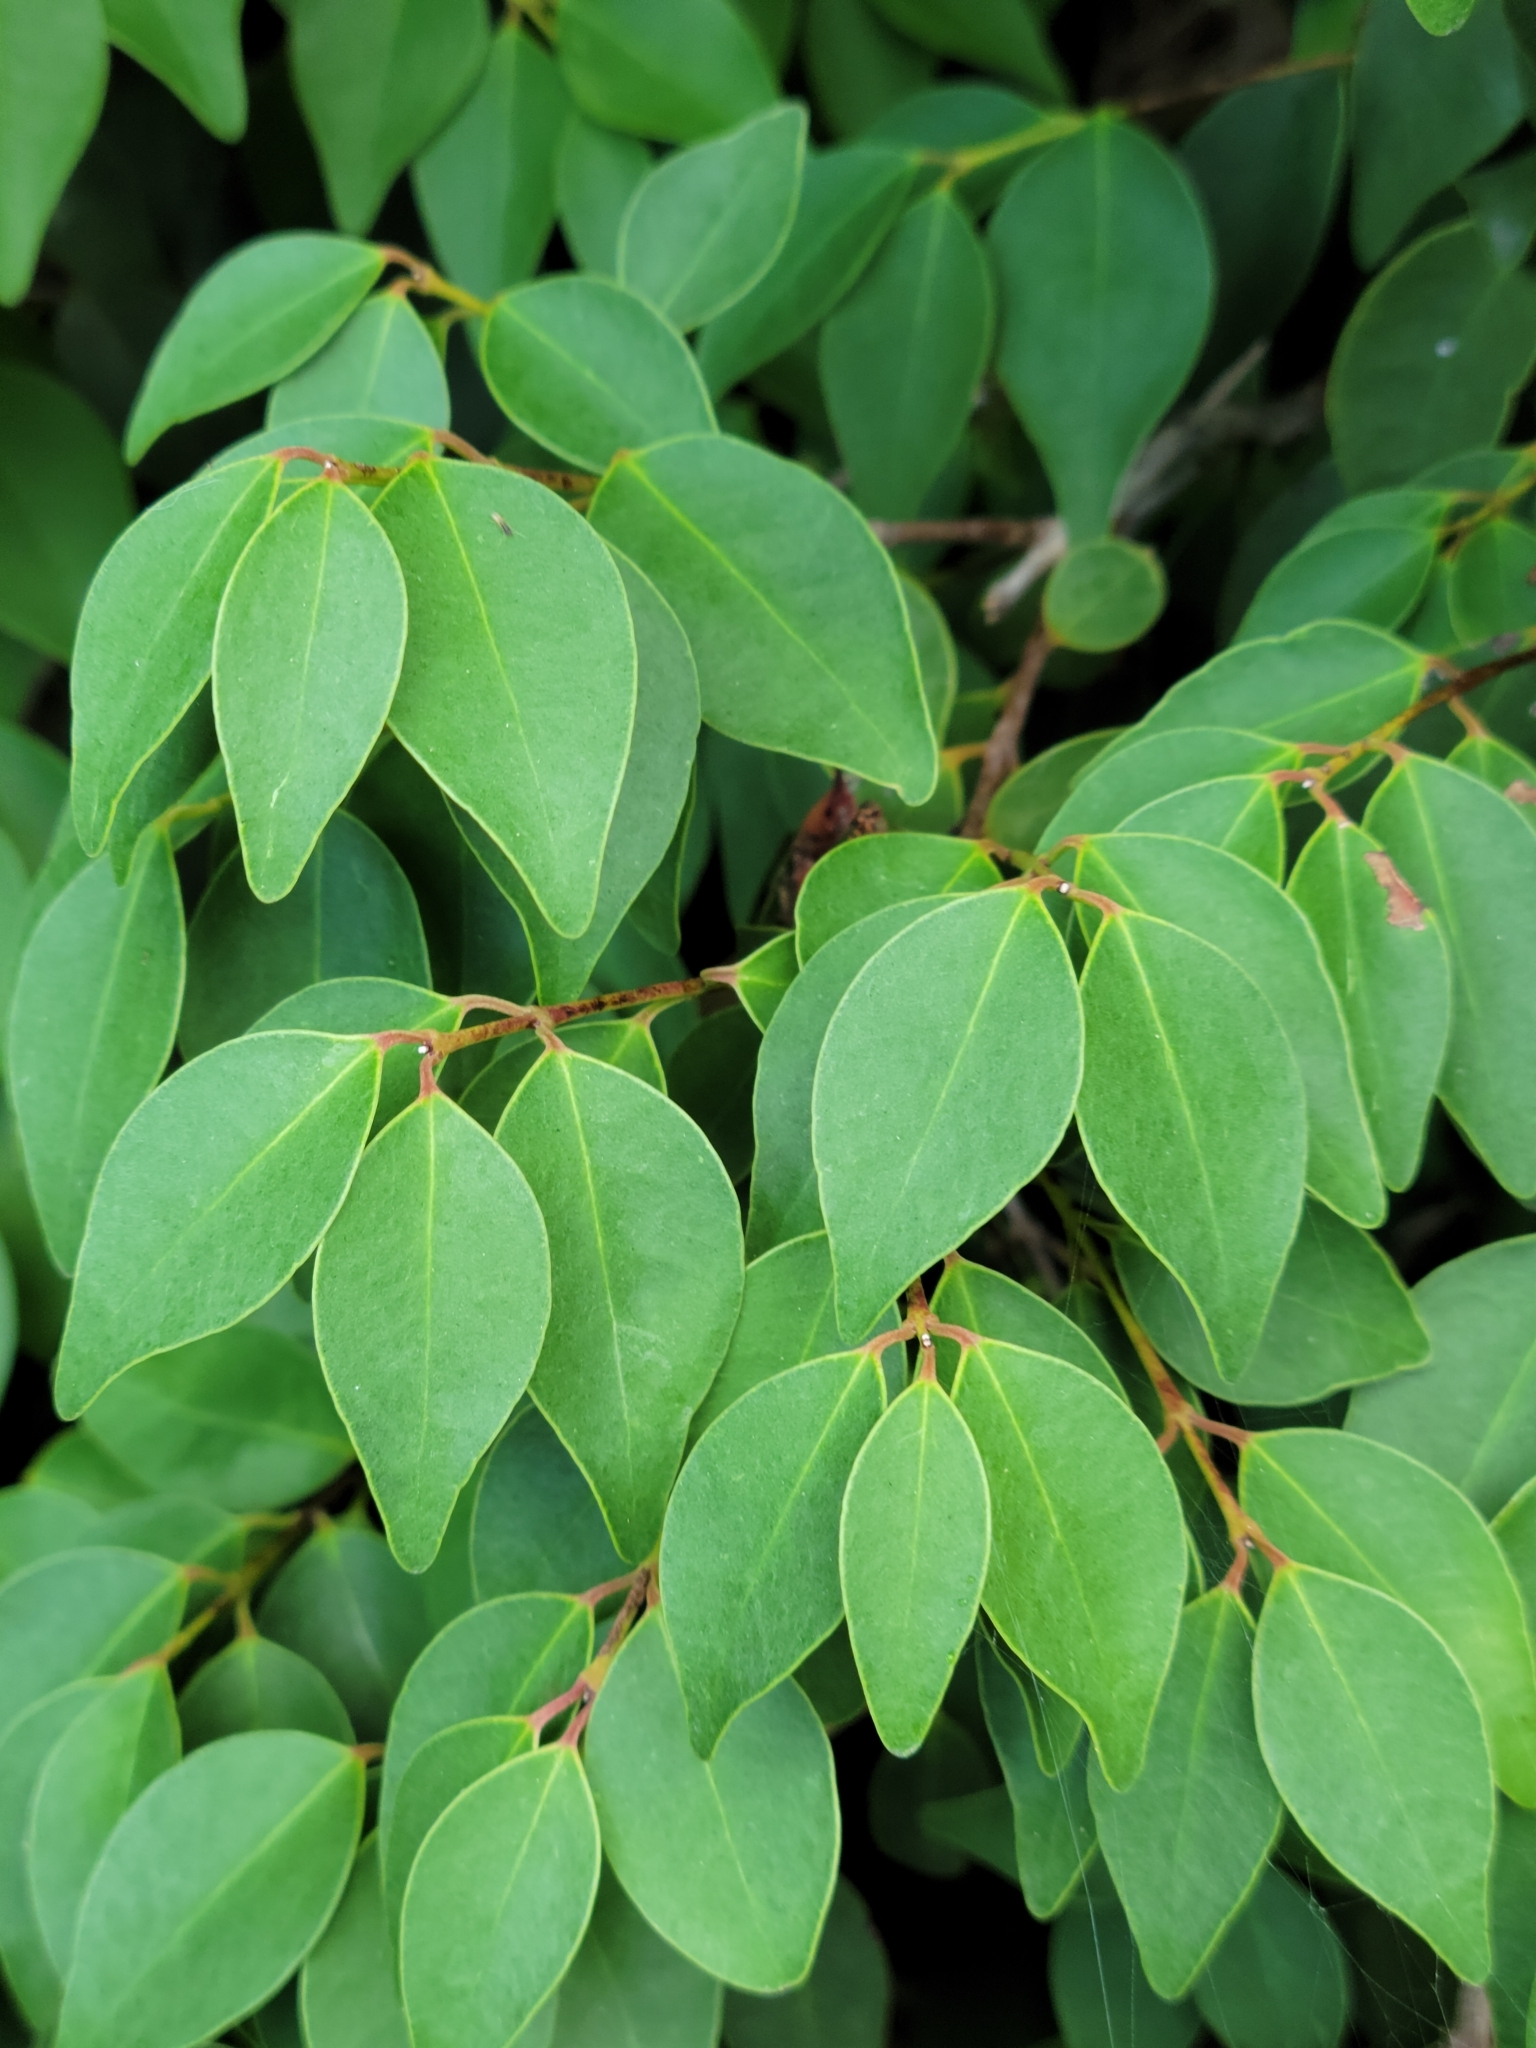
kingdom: Plantae
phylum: Tracheophyta
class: Magnoliopsida
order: Myrtales
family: Myrtaceae
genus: Eugenia
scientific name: Eugenia rhombea
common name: Pigeon berry
